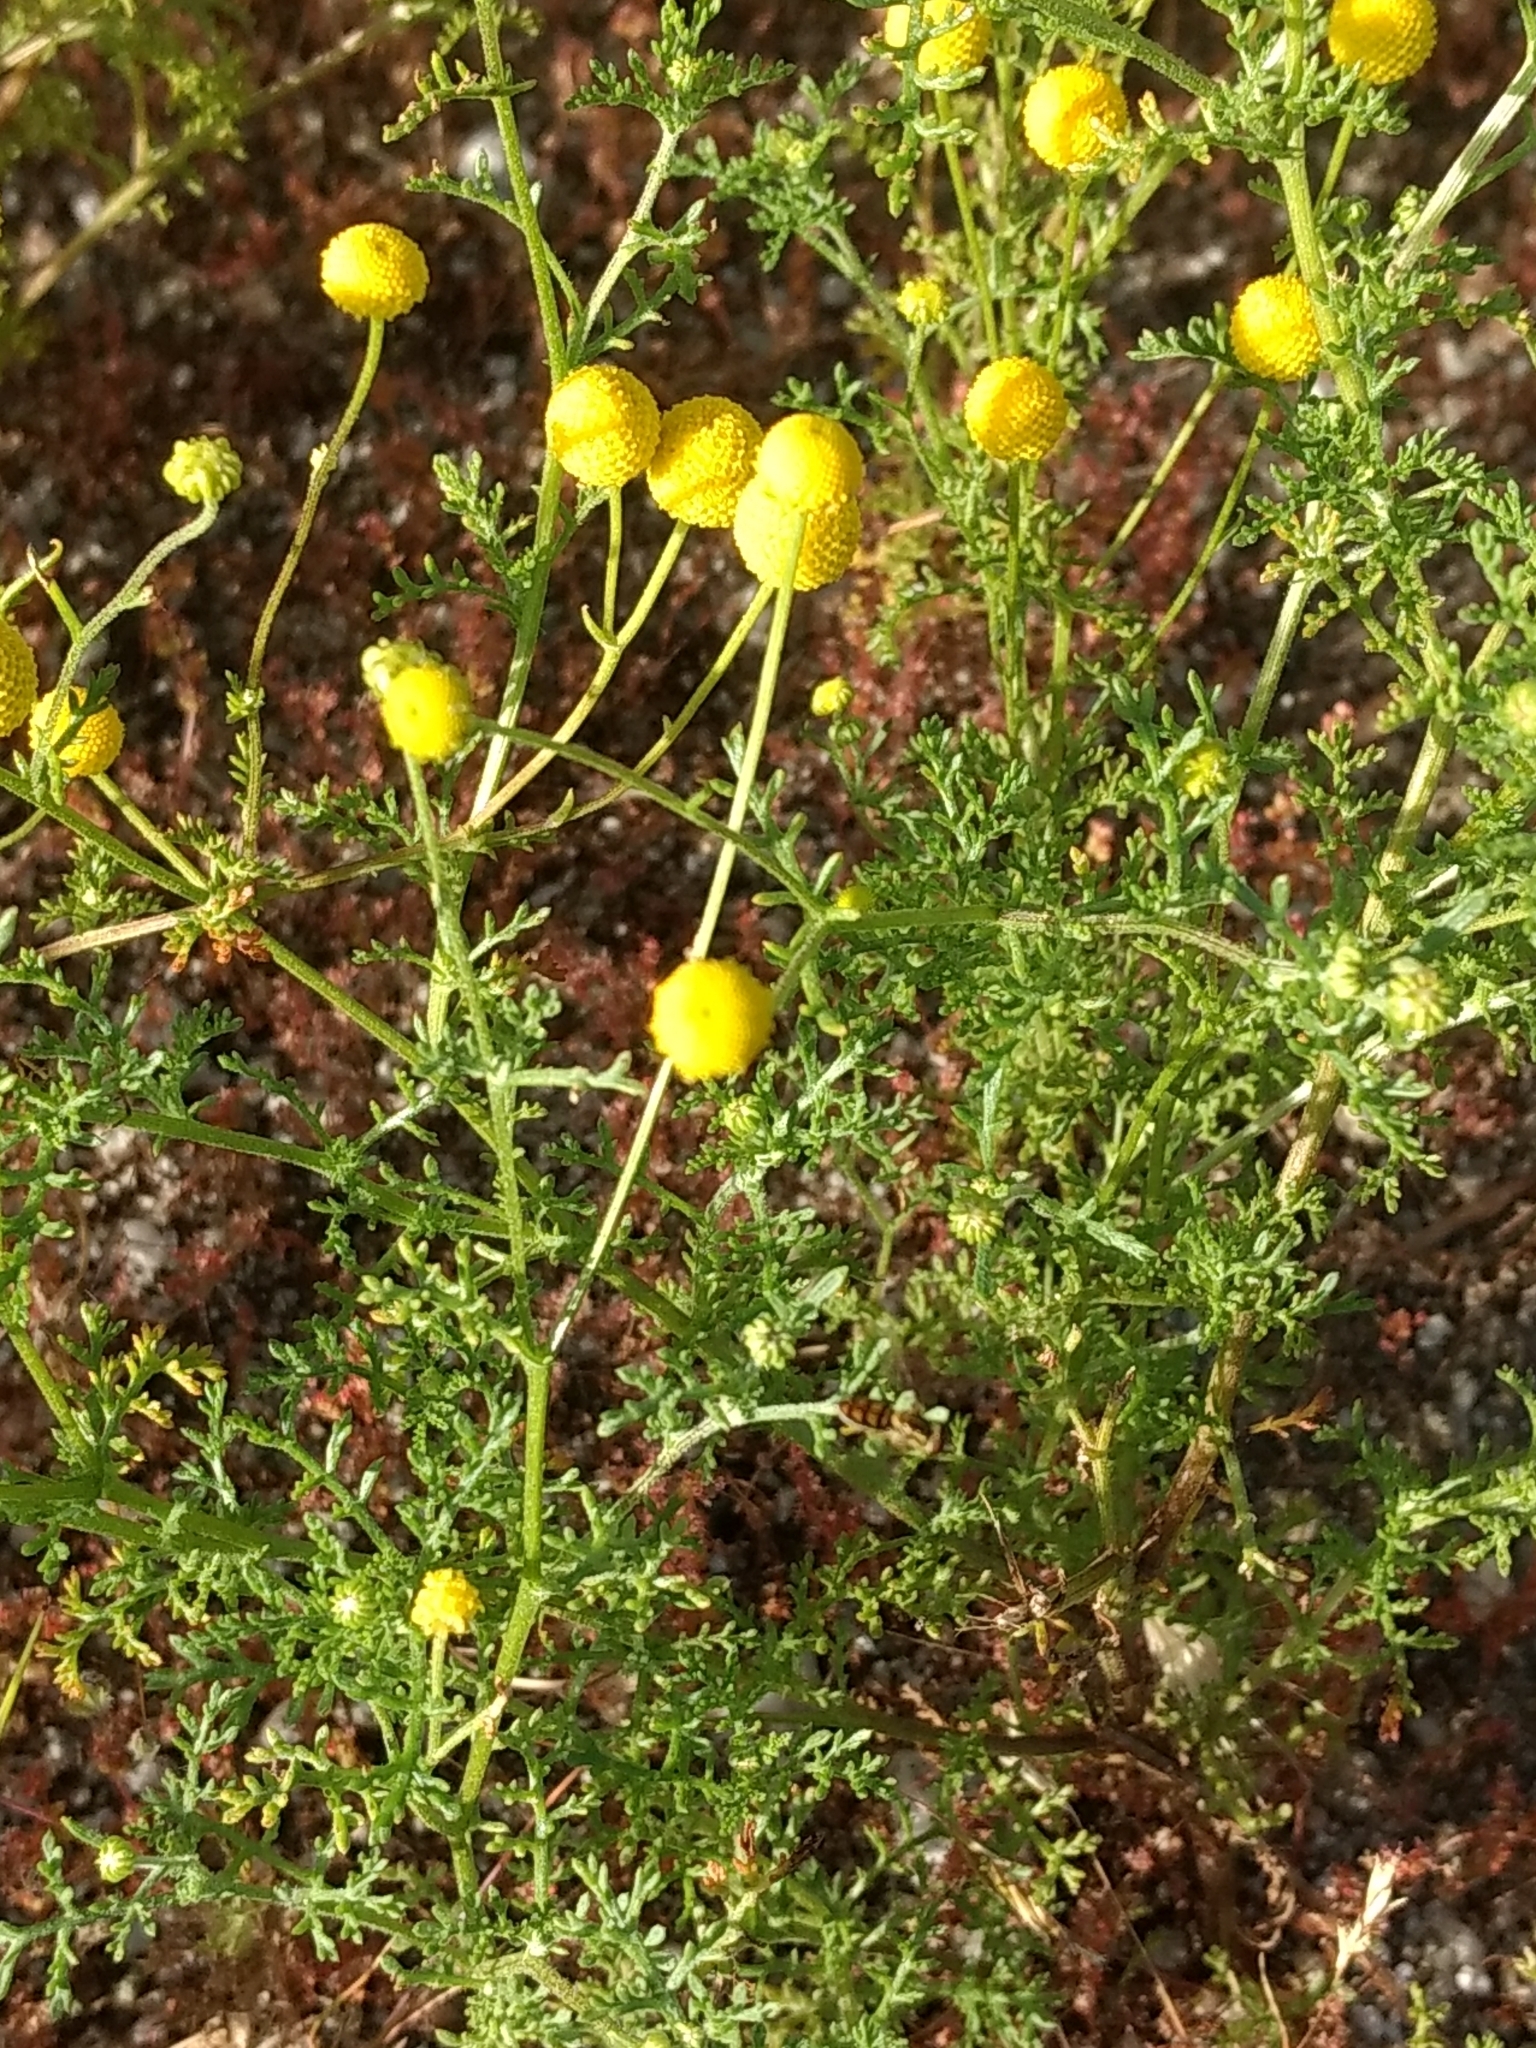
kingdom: Plantae
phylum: Tracheophyta
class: Magnoliopsida
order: Asterales
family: Asteraceae
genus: Oncosiphon
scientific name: Oncosiphon pilulifer
